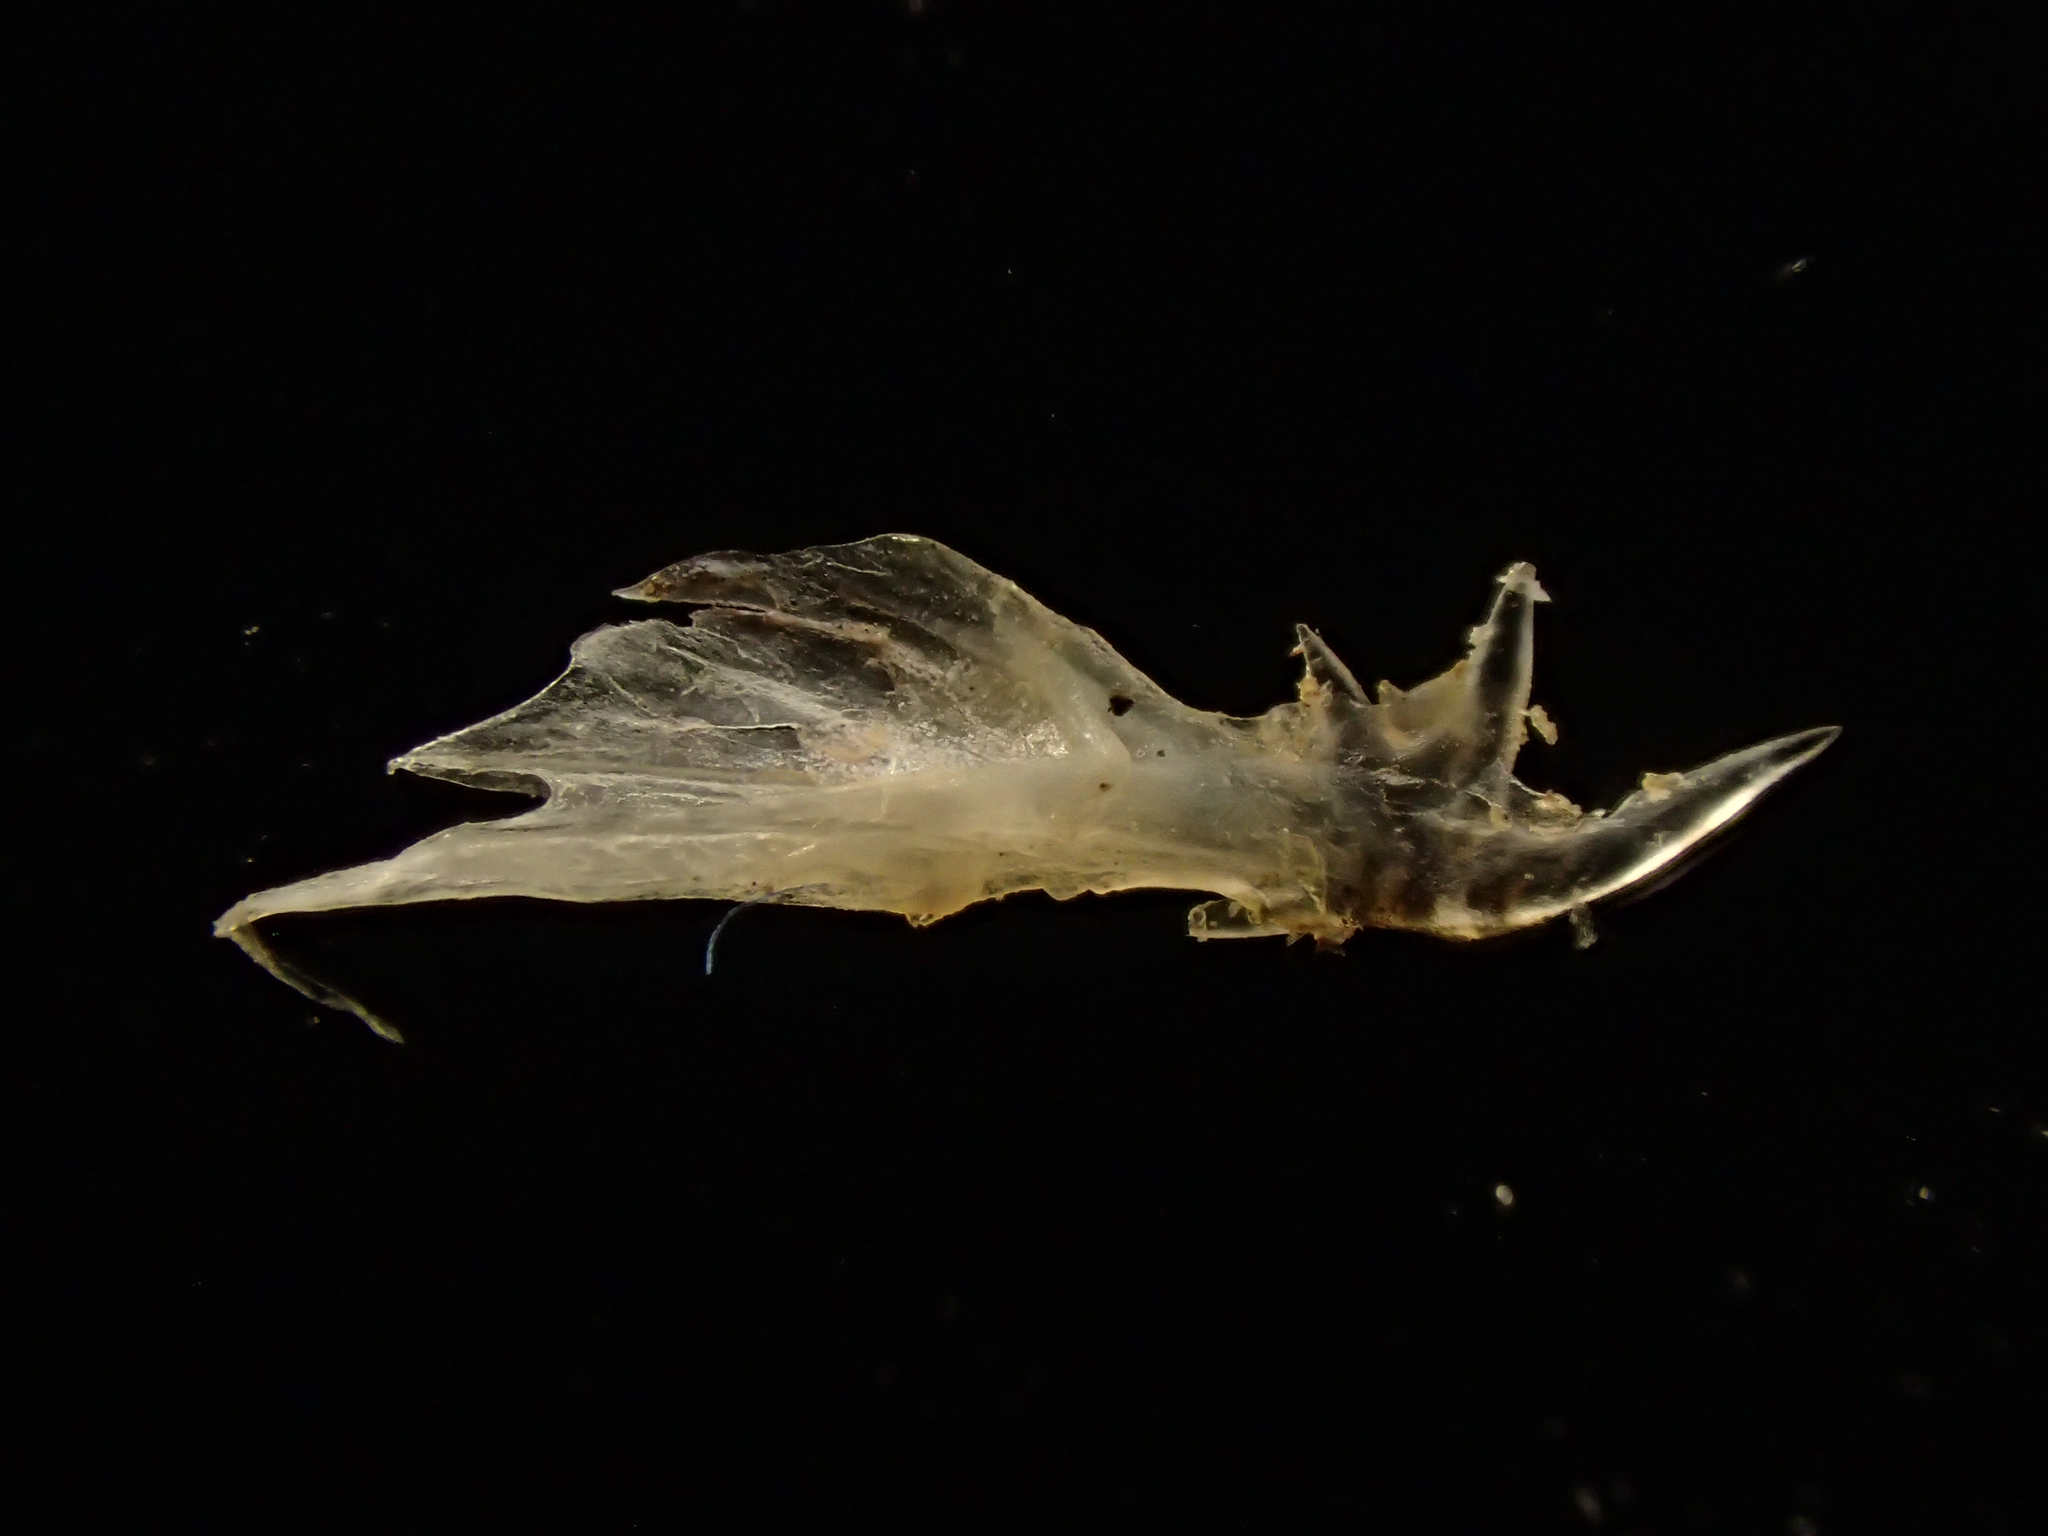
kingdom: Animalia
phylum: Chordata
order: Perciformes
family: Callionymidae
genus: Callionymus
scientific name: Callionymus lyra
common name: Dragonet
